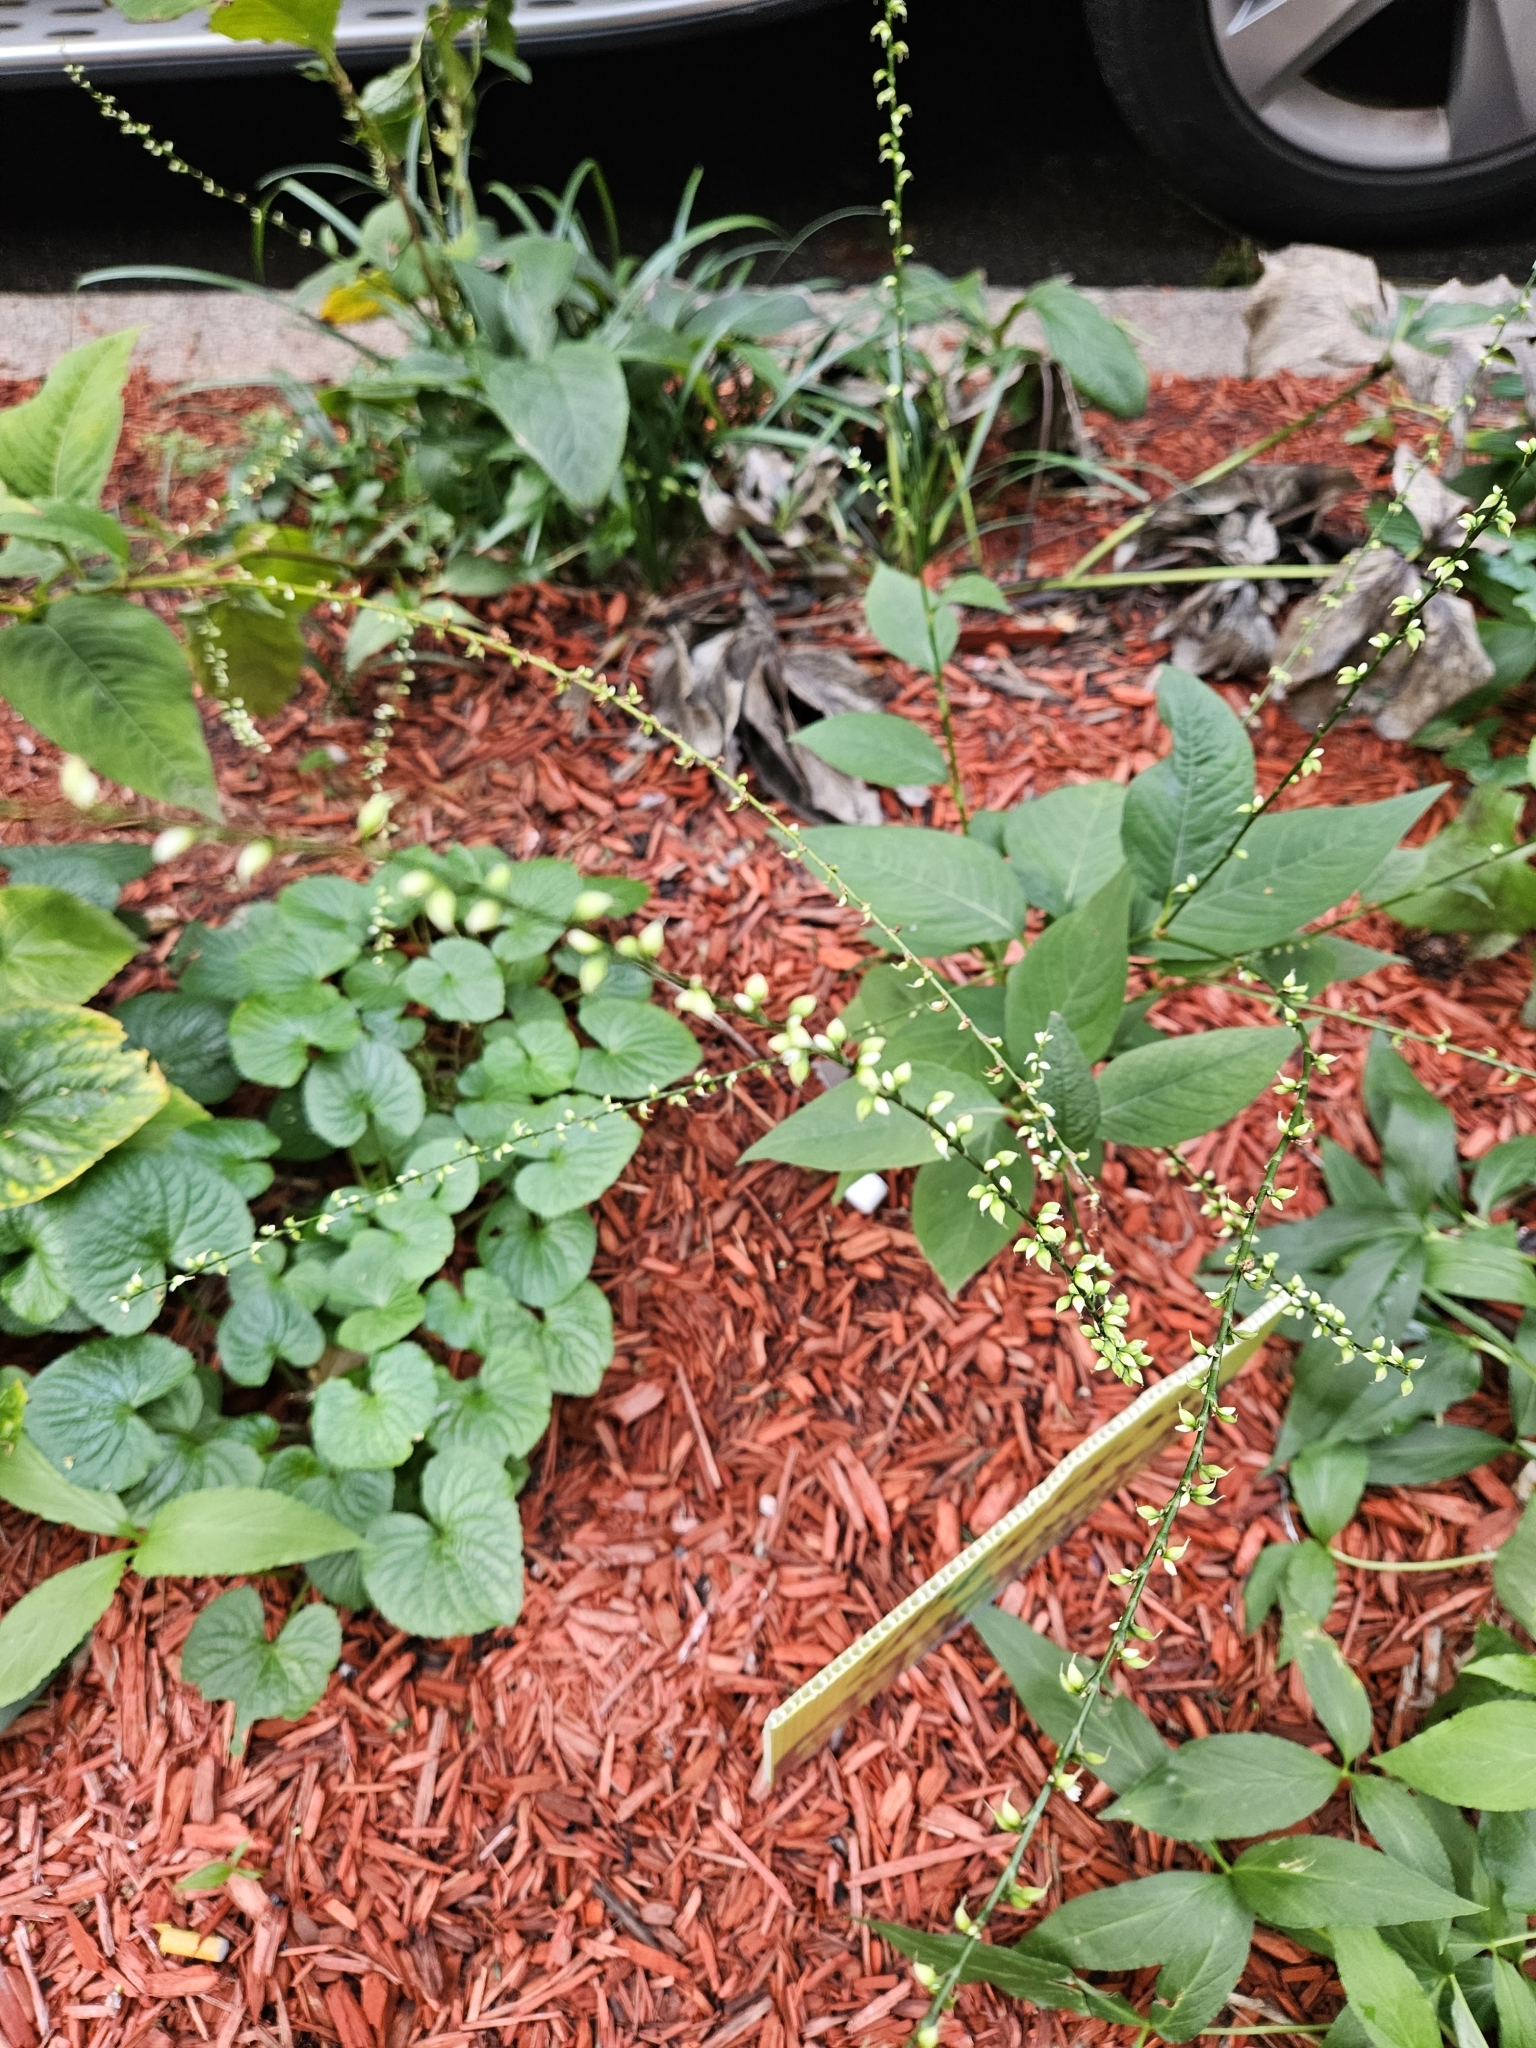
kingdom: Plantae
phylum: Tracheophyta
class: Magnoliopsida
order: Caryophyllales
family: Polygonaceae
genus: Persicaria
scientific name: Persicaria virginiana
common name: Jumpseed
